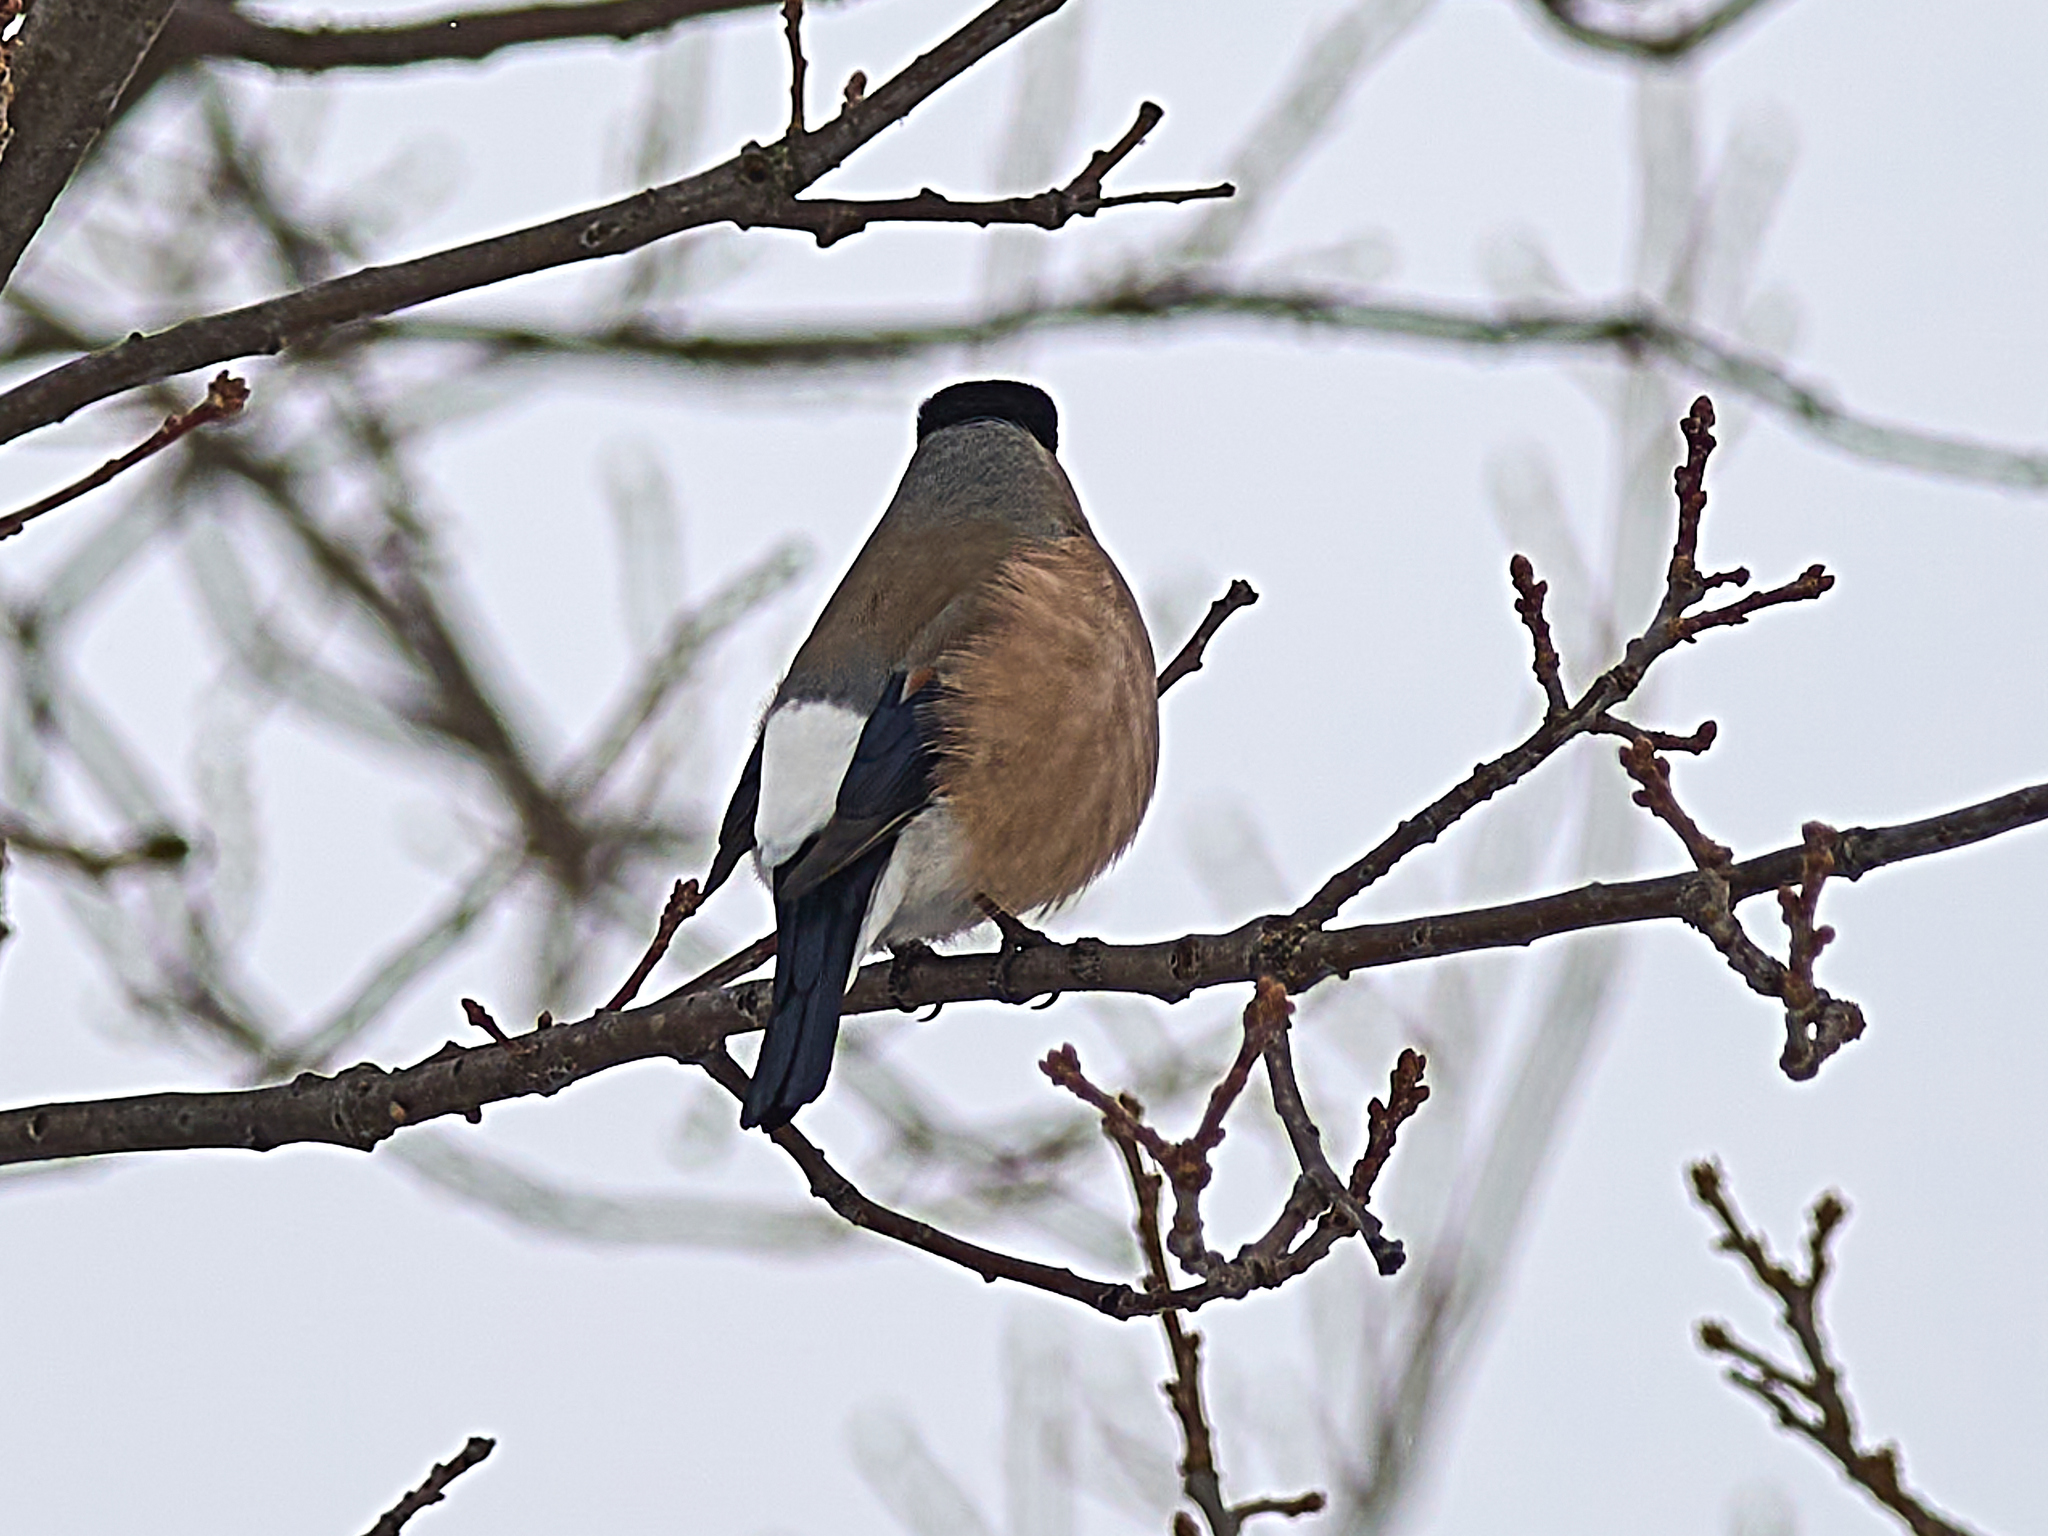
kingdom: Animalia
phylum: Chordata
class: Aves
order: Passeriformes
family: Fringillidae
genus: Pyrrhula
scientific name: Pyrrhula pyrrhula
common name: Eurasian bullfinch
